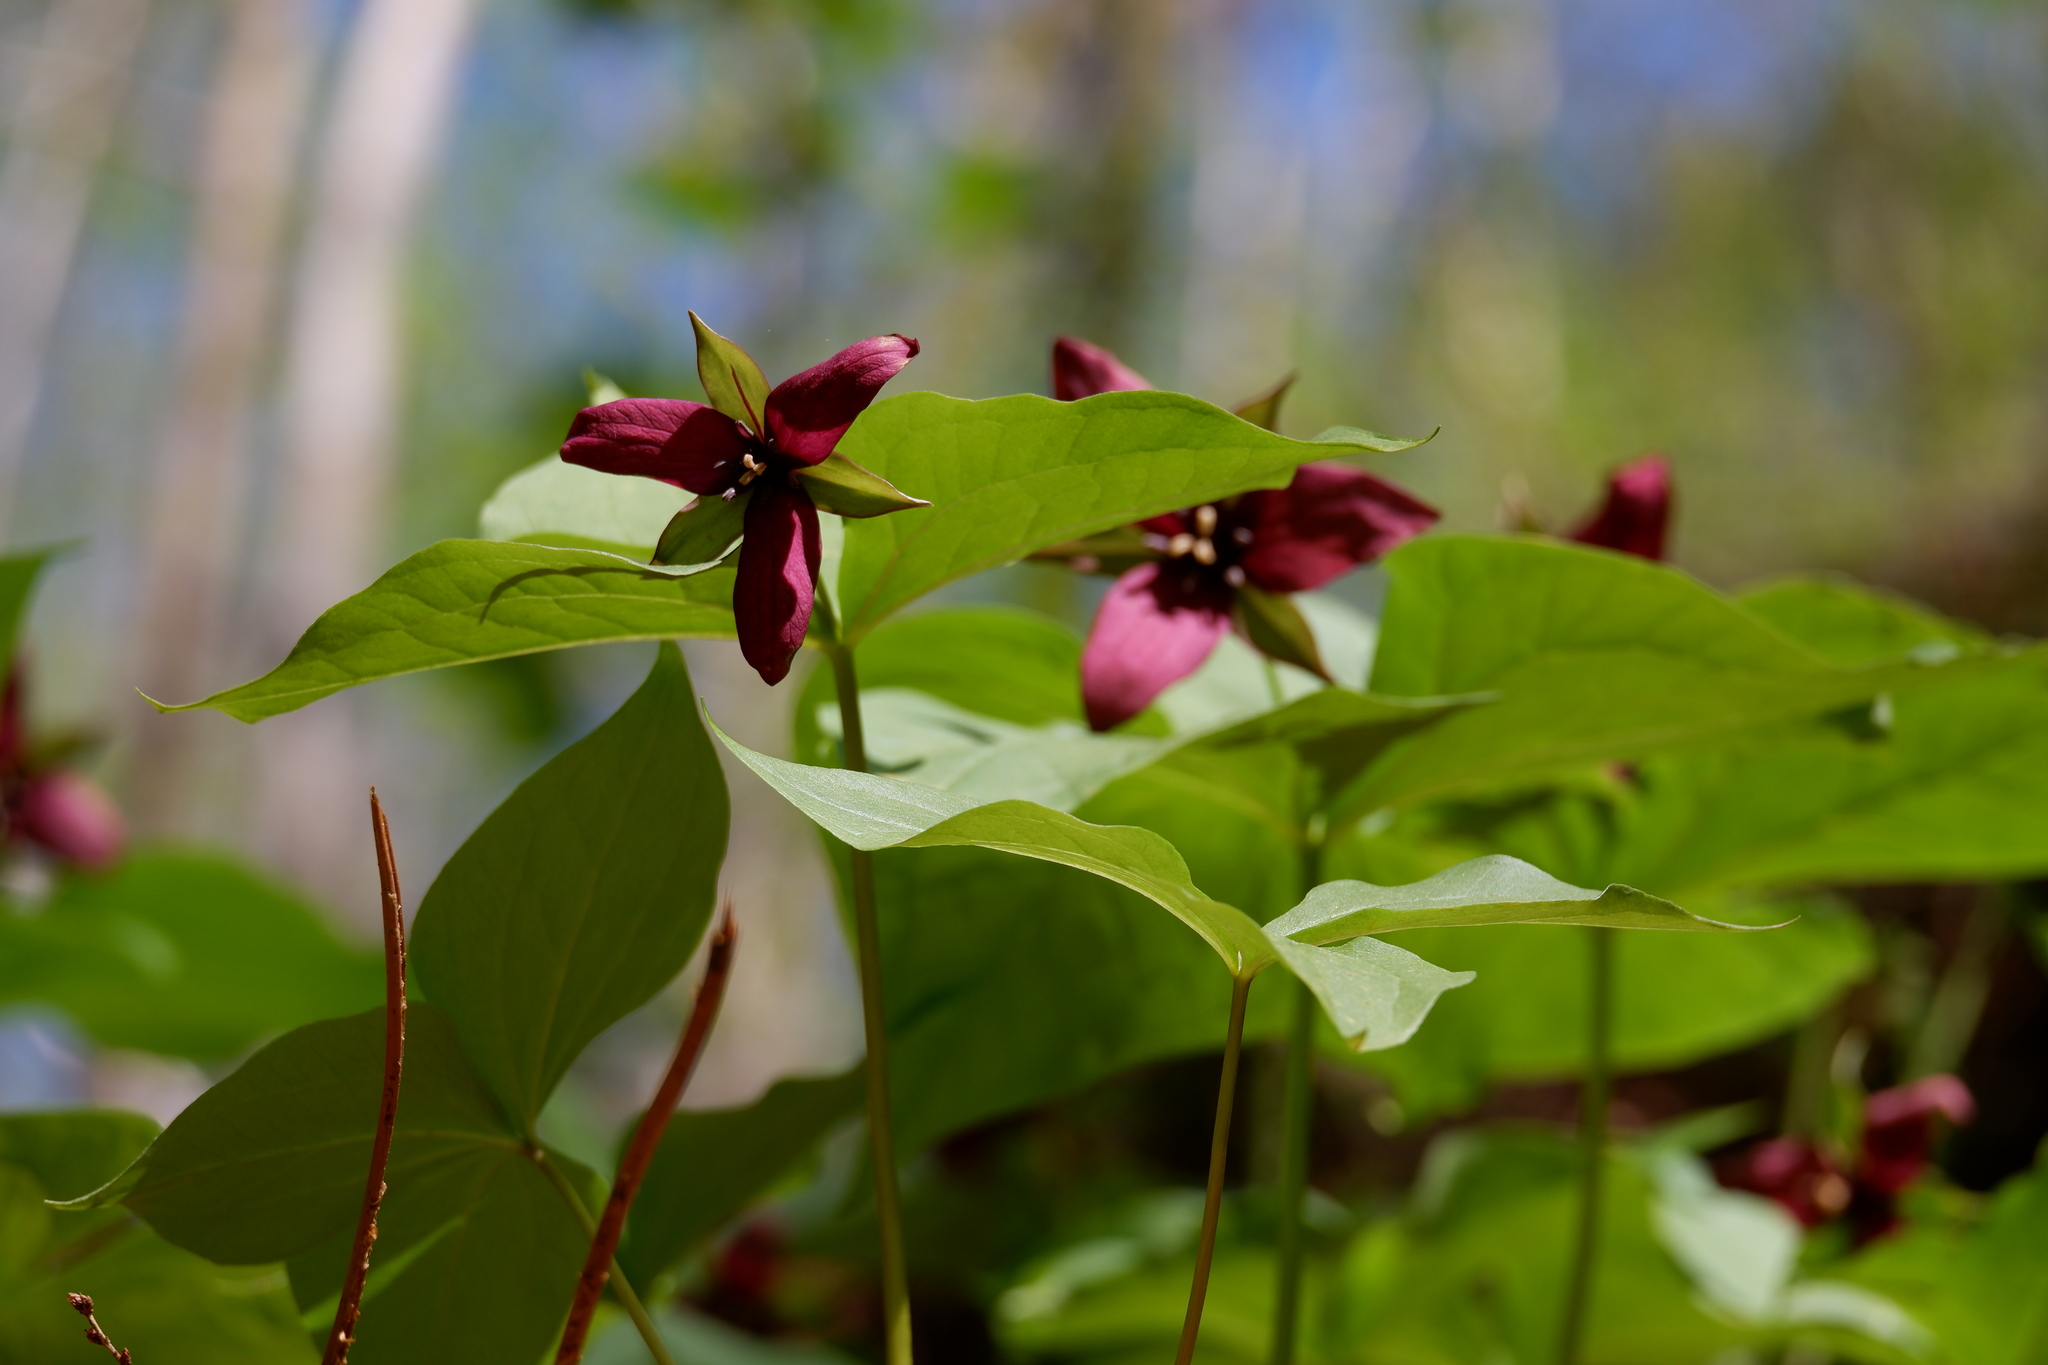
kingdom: Plantae
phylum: Tracheophyta
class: Liliopsida
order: Liliales
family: Melanthiaceae
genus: Trillium
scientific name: Trillium erectum
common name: Purple trillium
